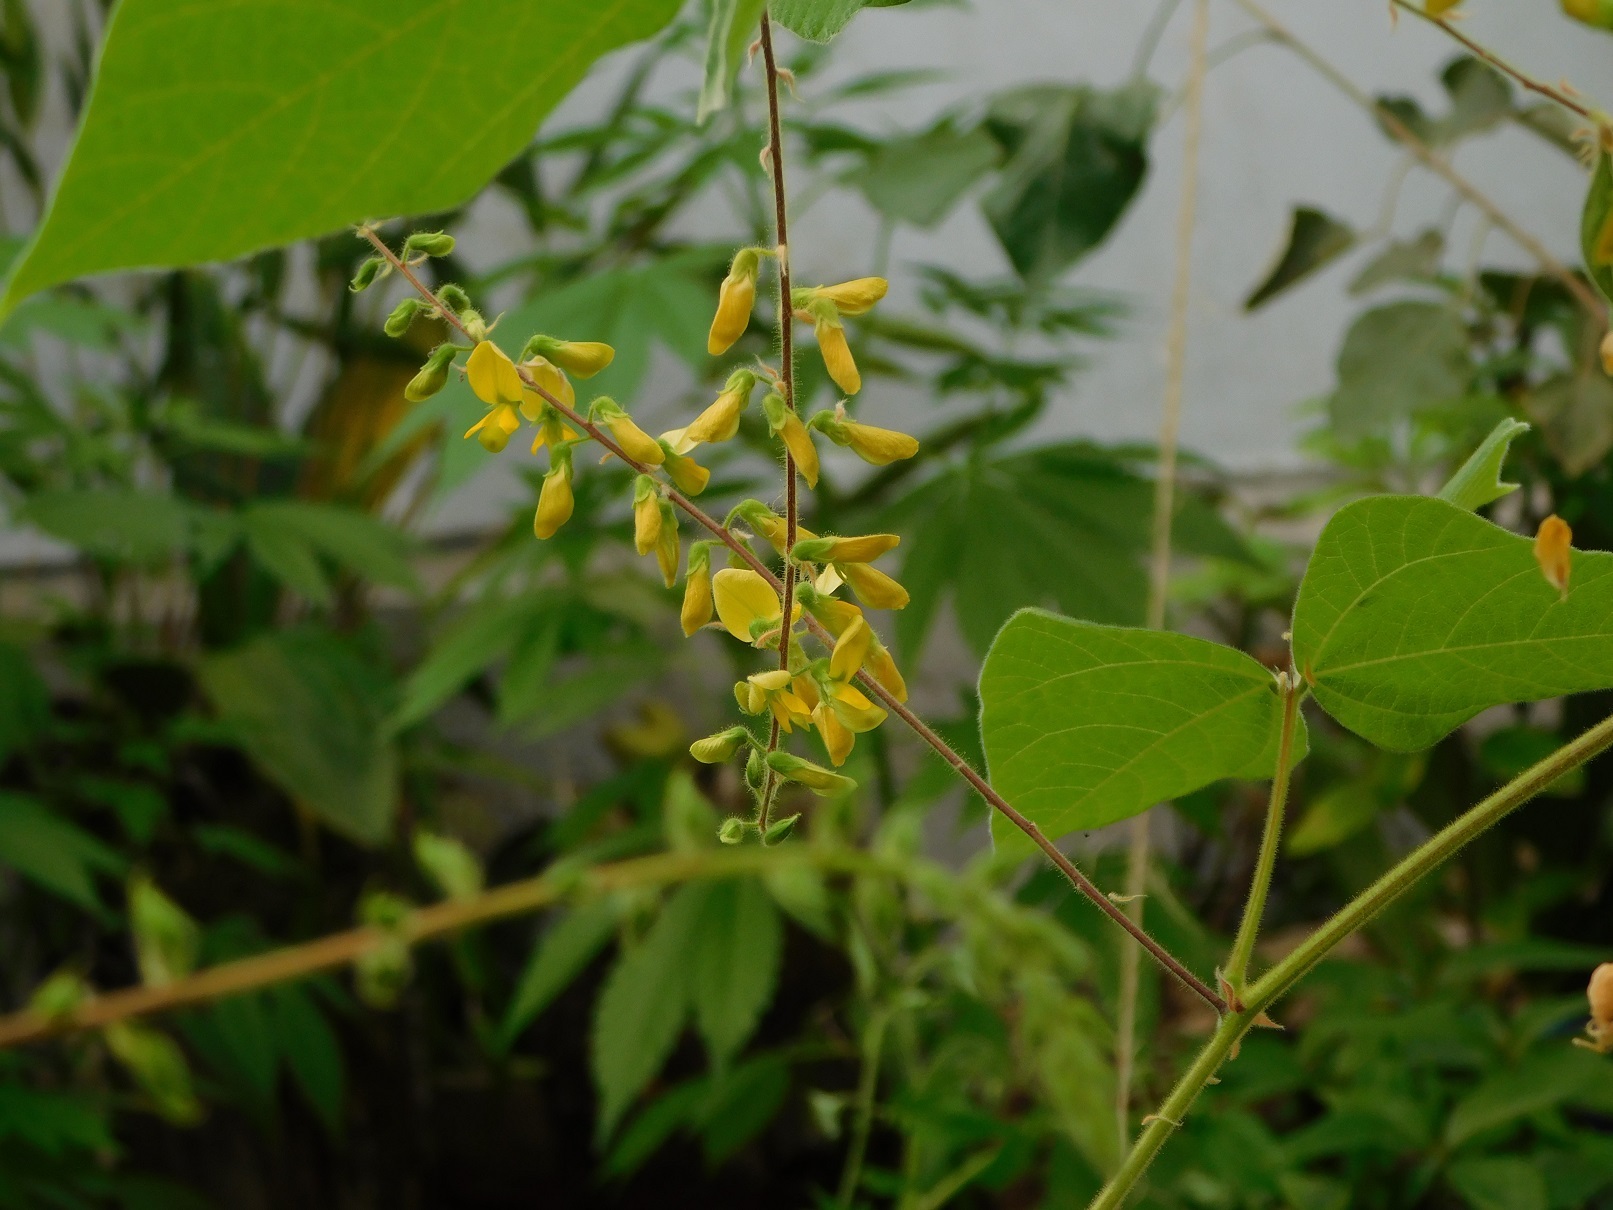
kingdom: Plantae
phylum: Tracheophyta
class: Magnoliopsida
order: Fabales
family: Fabaceae
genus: Rhynchosia
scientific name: Rhynchosia erythrinoides
